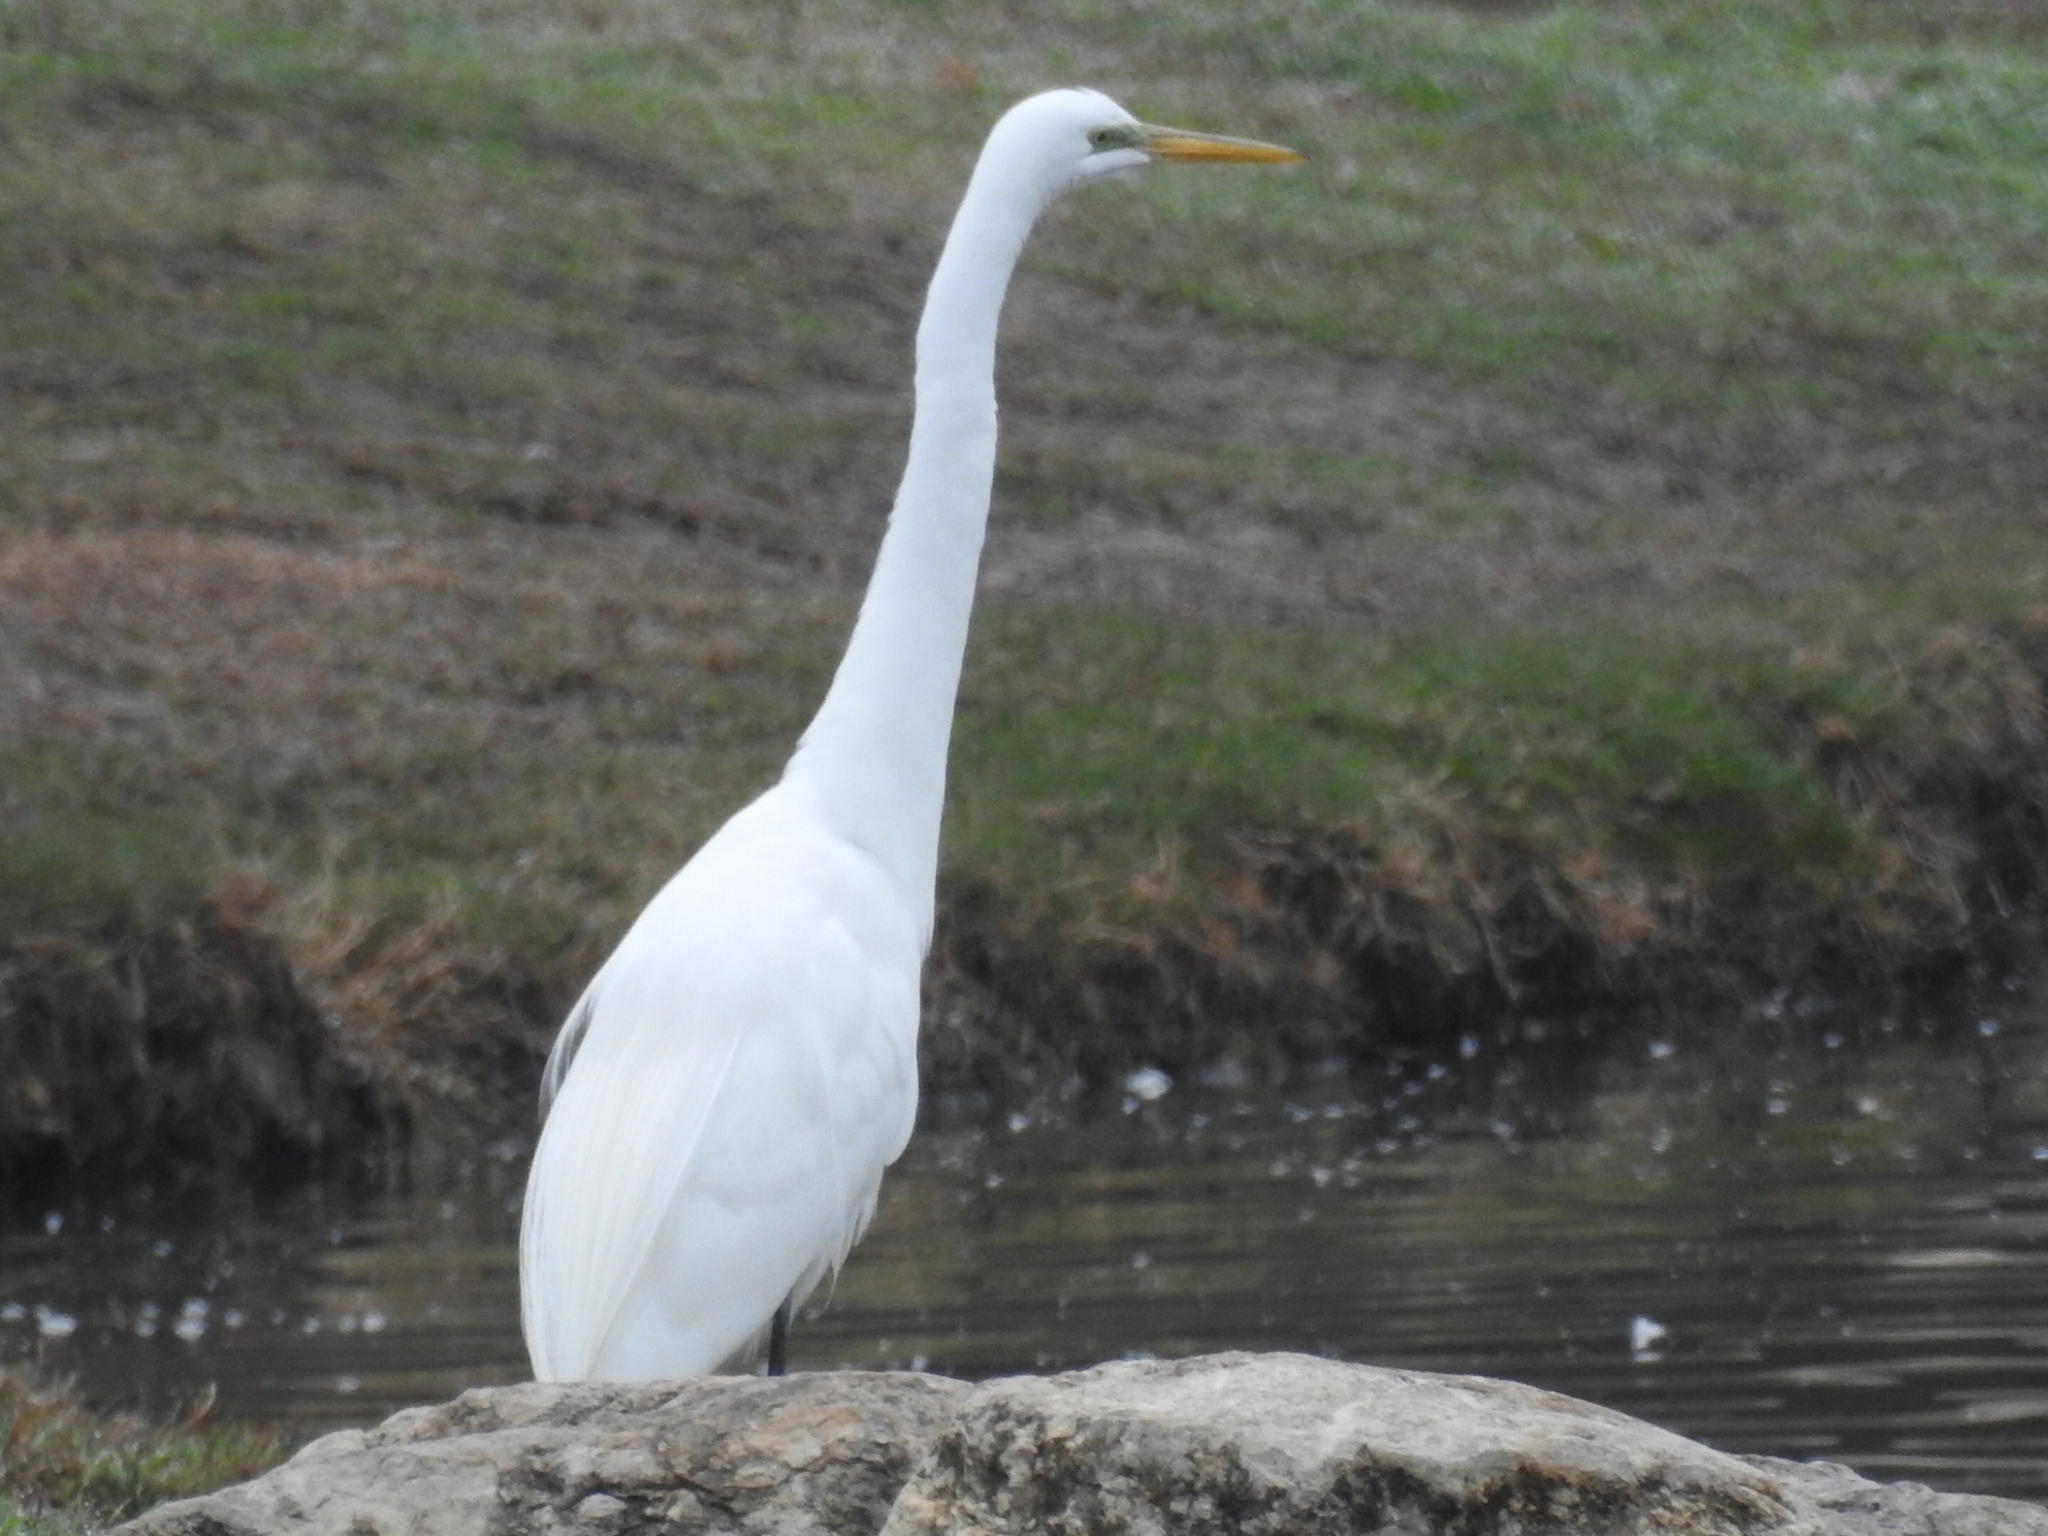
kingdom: Animalia
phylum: Chordata
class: Aves
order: Pelecaniformes
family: Ardeidae
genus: Ardea
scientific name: Ardea alba
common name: Great egret
